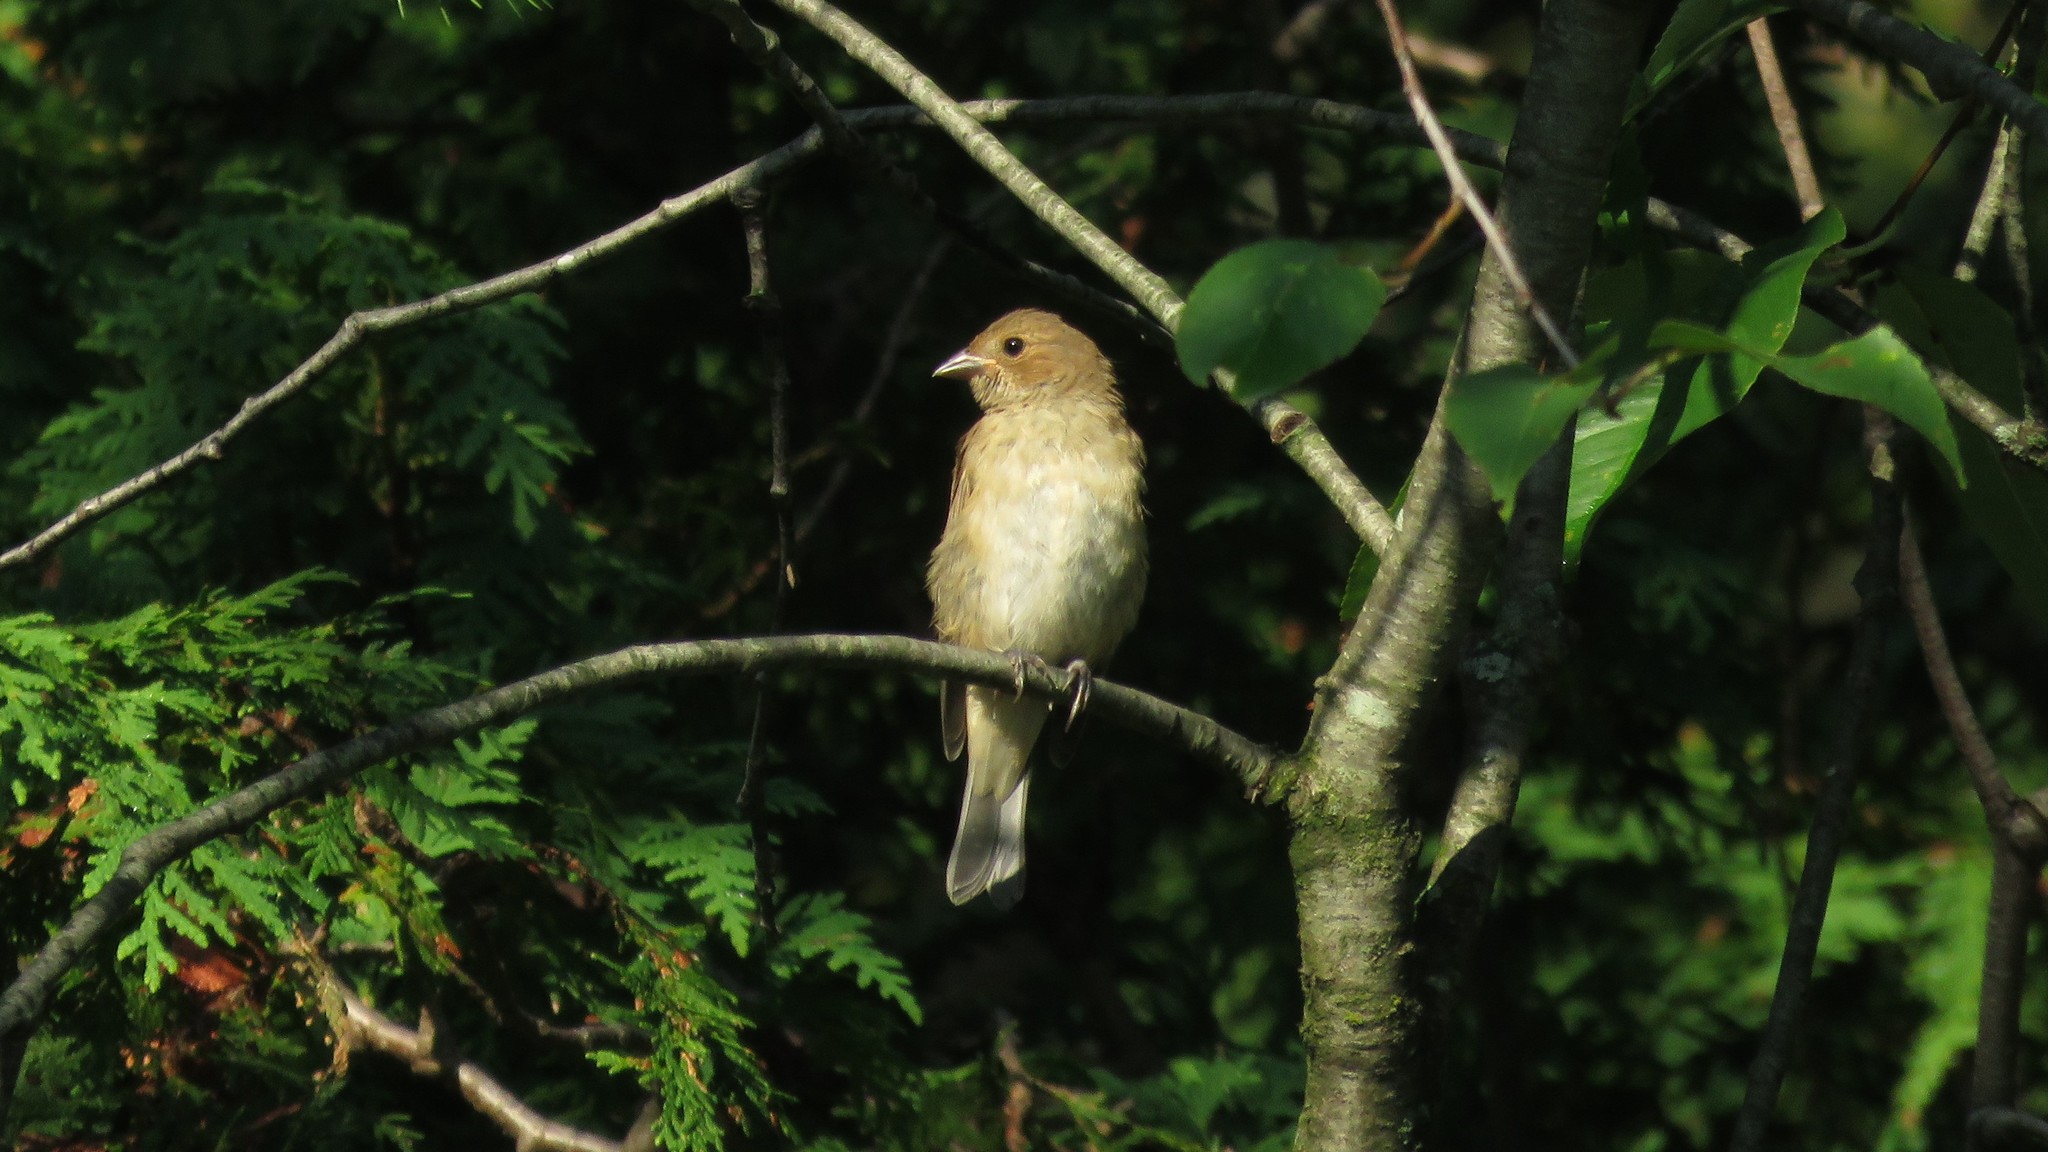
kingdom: Animalia
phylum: Chordata
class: Aves
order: Passeriformes
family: Cardinalidae
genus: Passerina
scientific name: Passerina cyanea
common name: Indigo bunting
